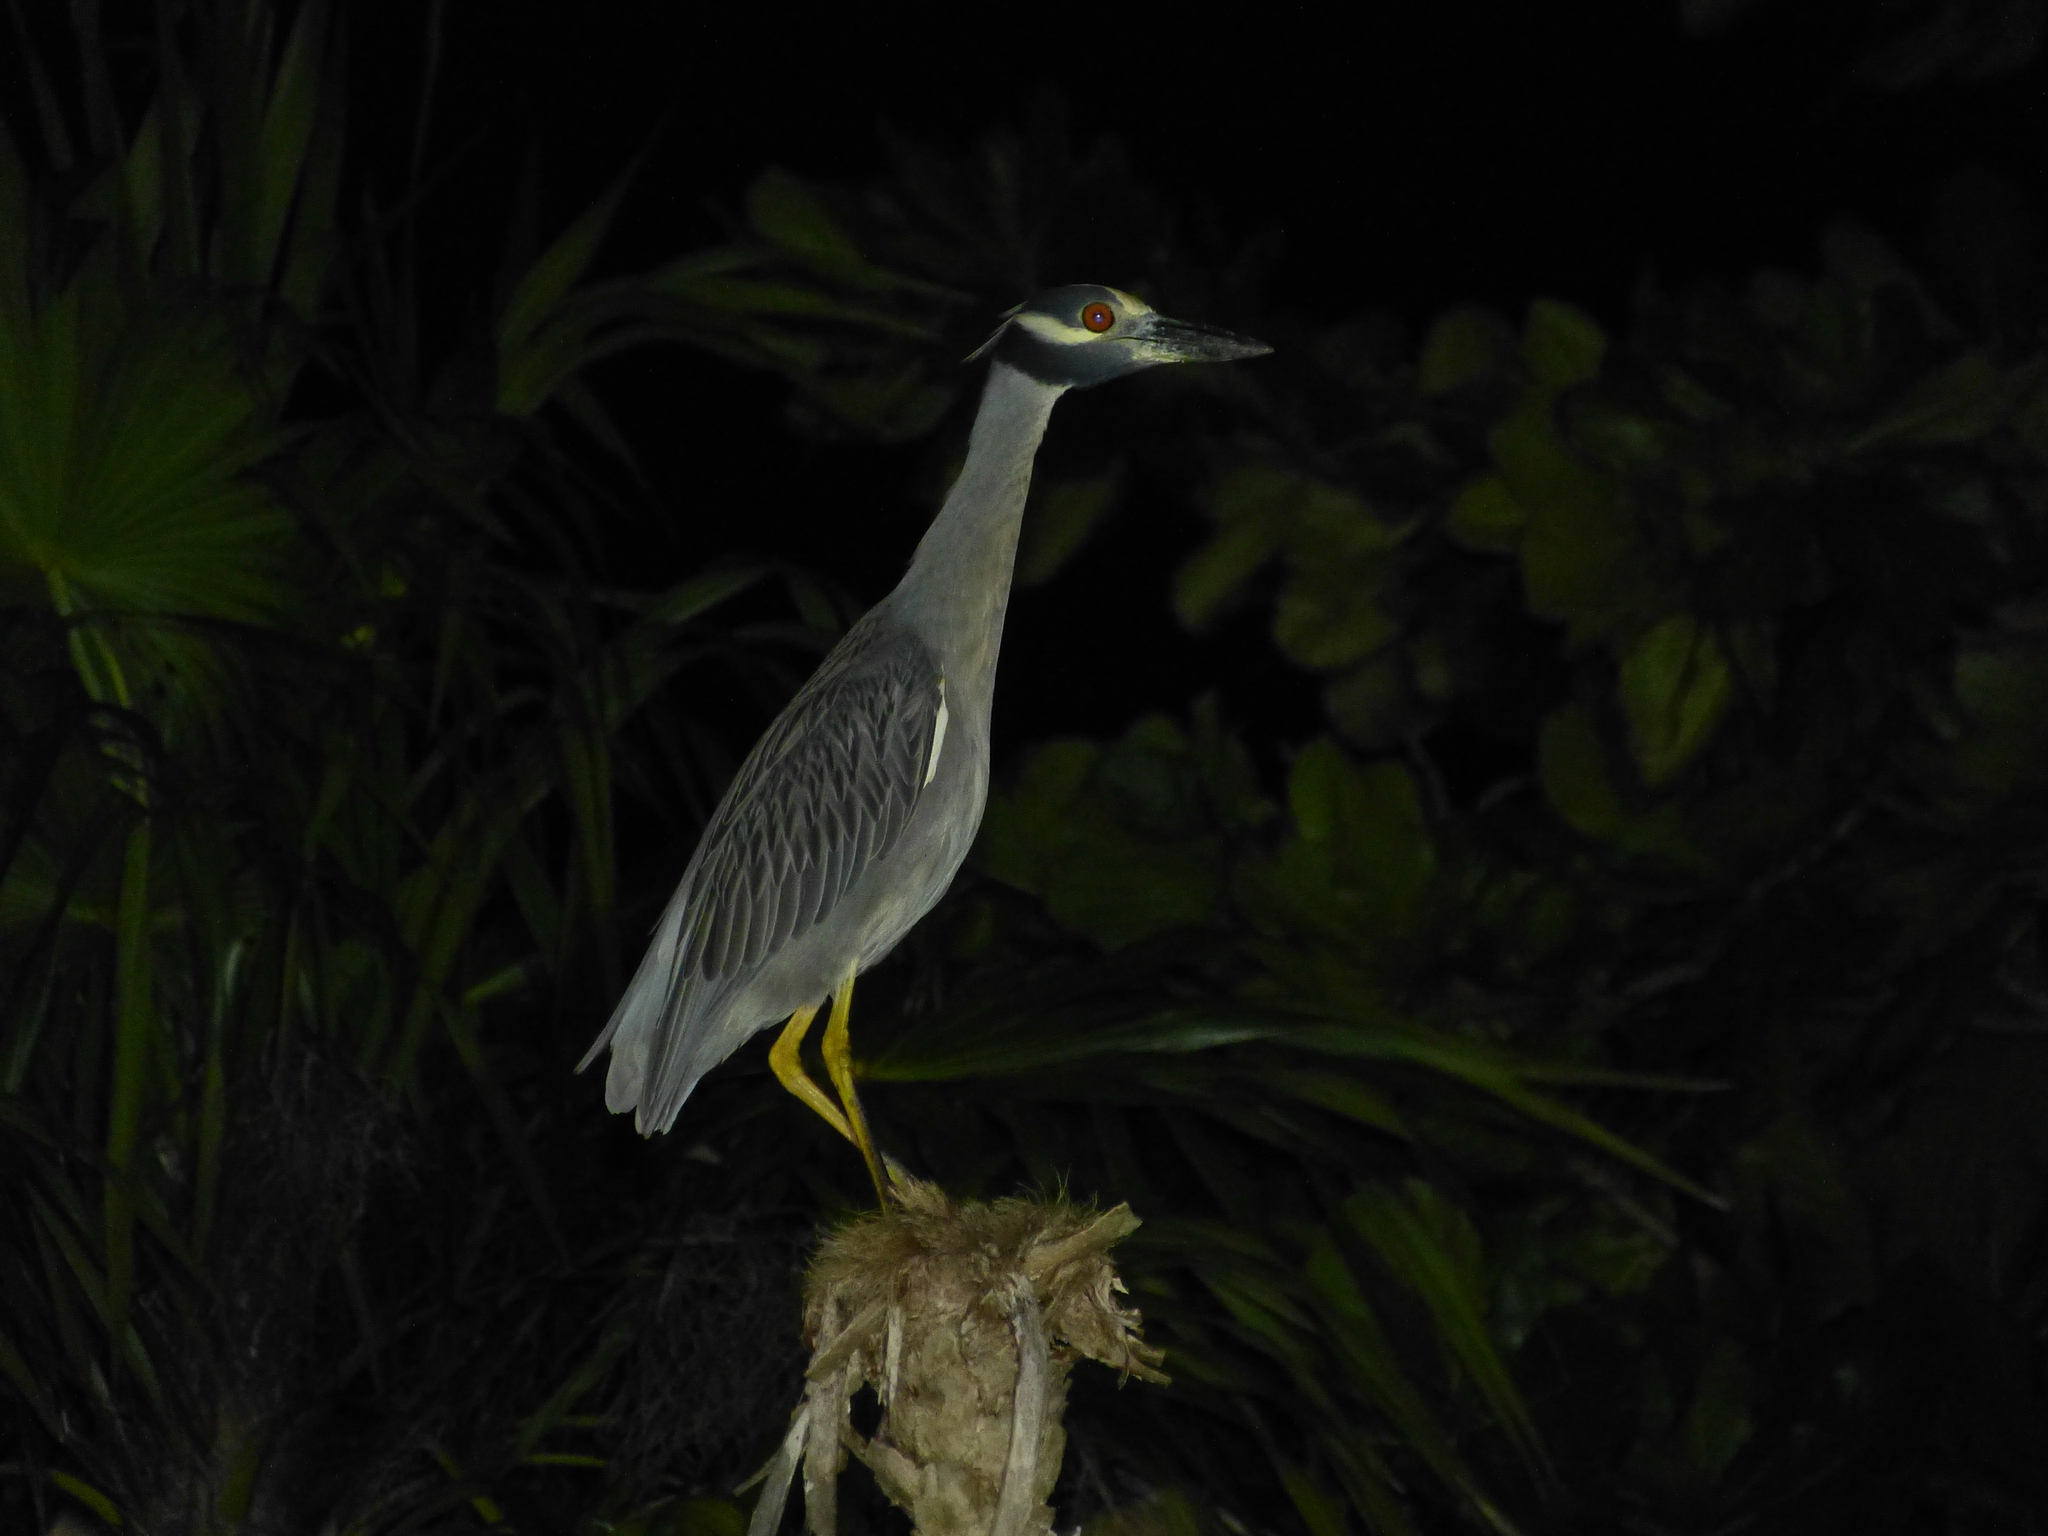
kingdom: Animalia
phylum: Chordata
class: Aves
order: Pelecaniformes
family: Ardeidae
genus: Nyctanassa
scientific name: Nyctanassa violacea
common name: Yellow-crowned night heron
